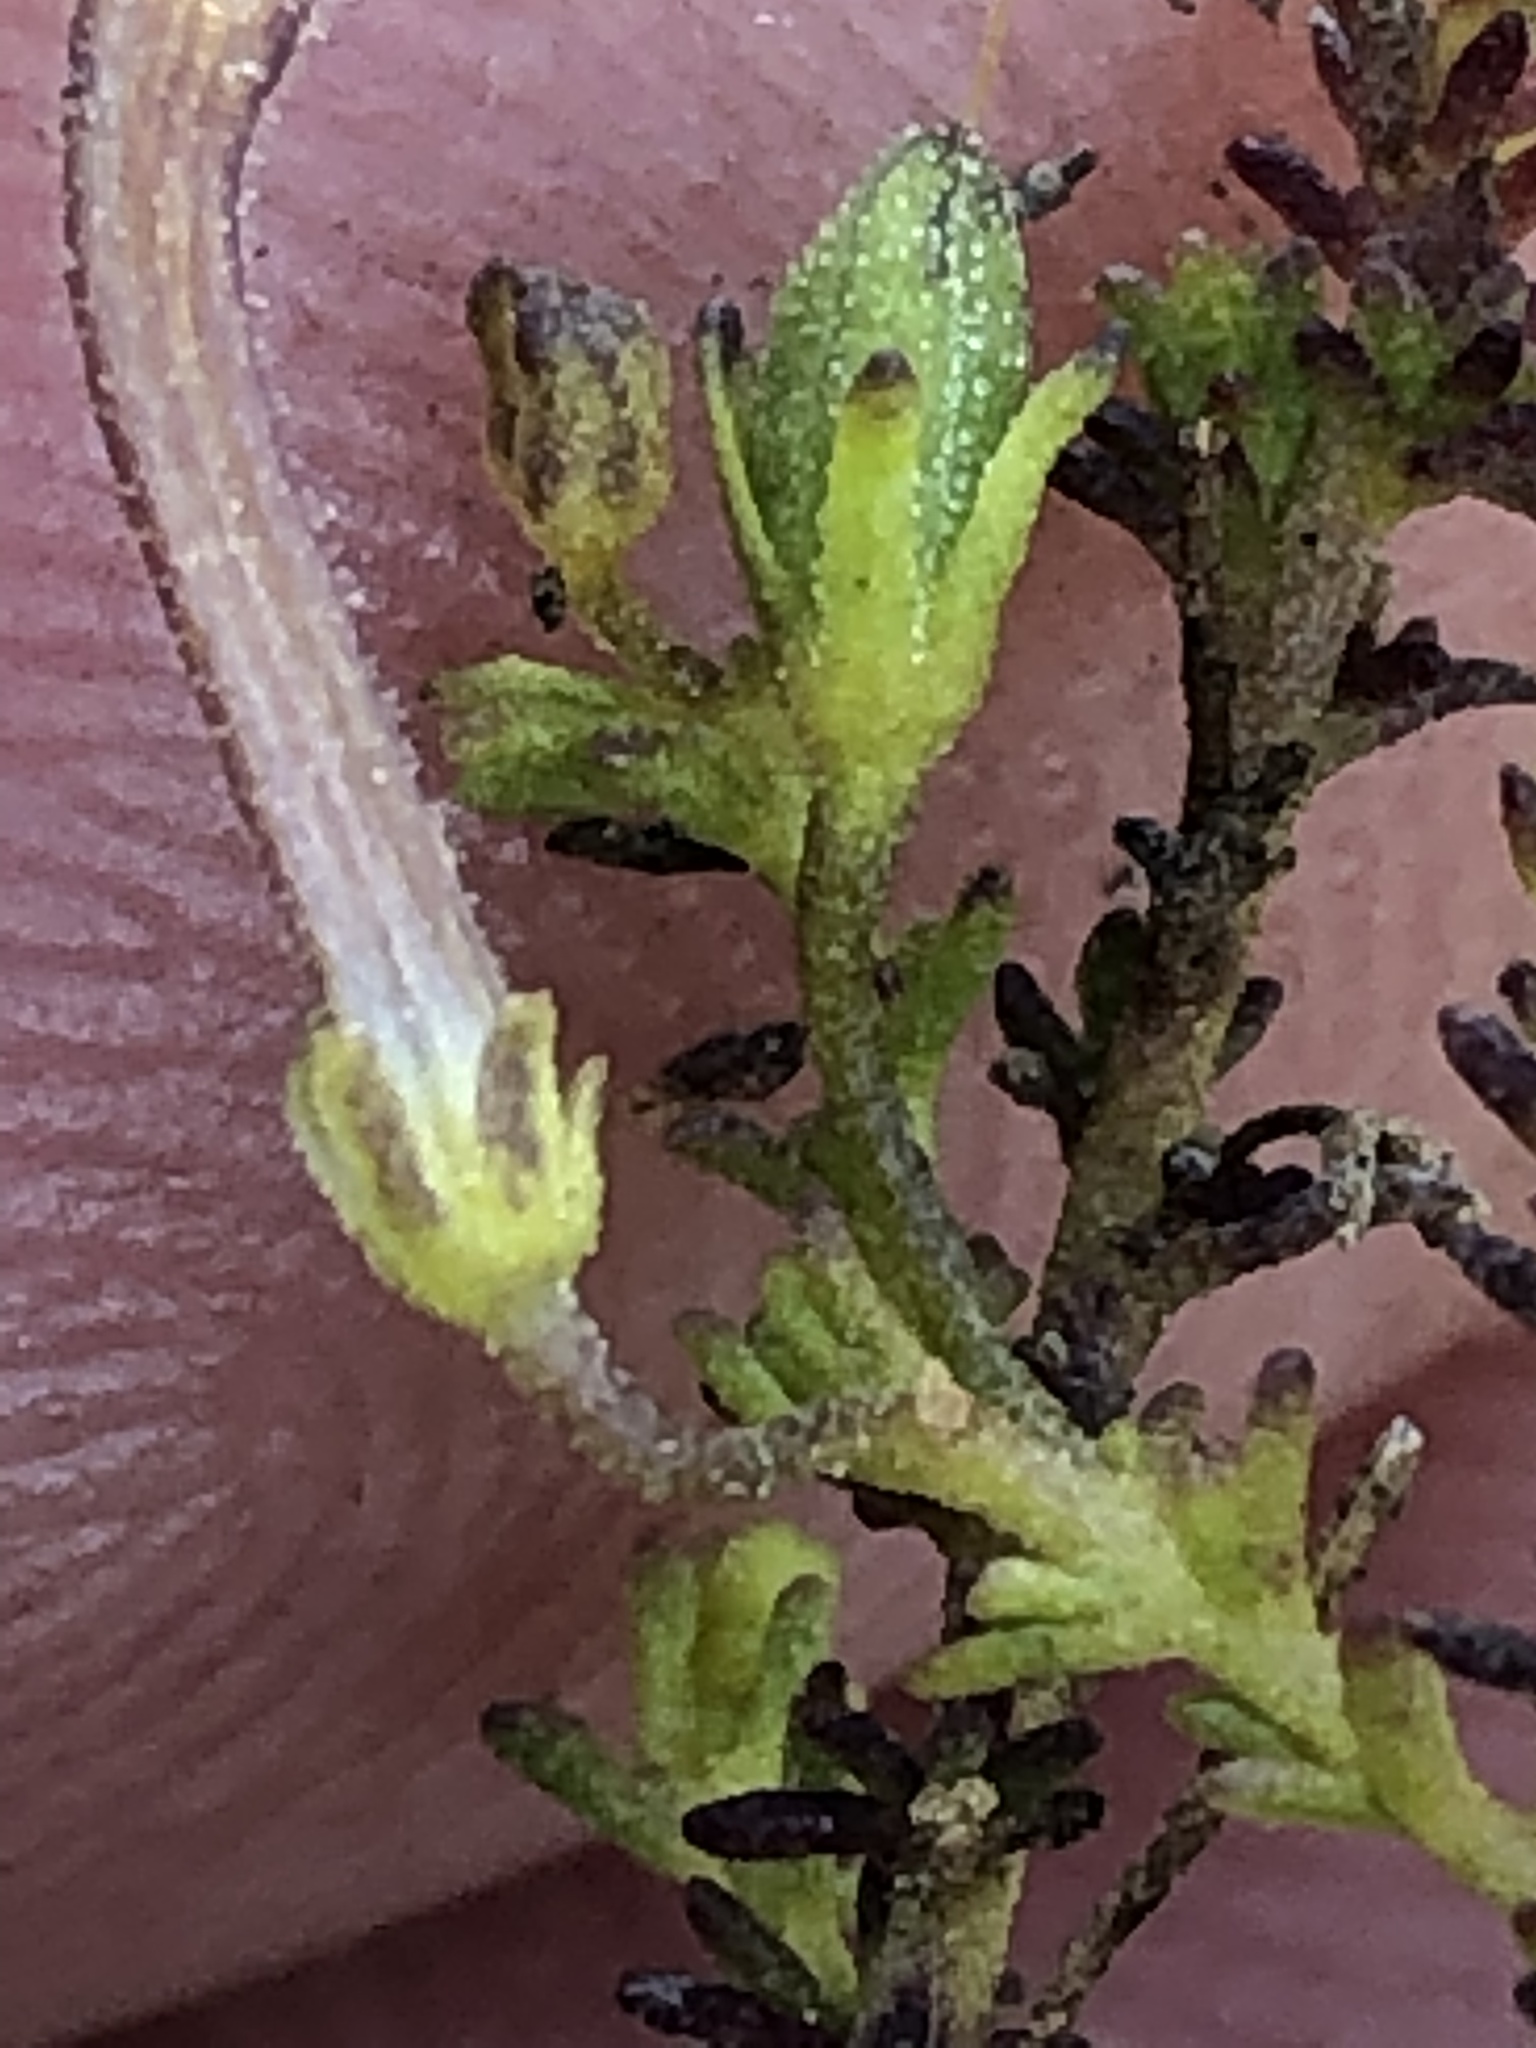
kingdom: Plantae
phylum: Tracheophyta
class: Magnoliopsida
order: Lamiales
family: Scrophulariaceae
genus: Jamesbrittenia
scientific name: Jamesbrittenia aspalathoides
